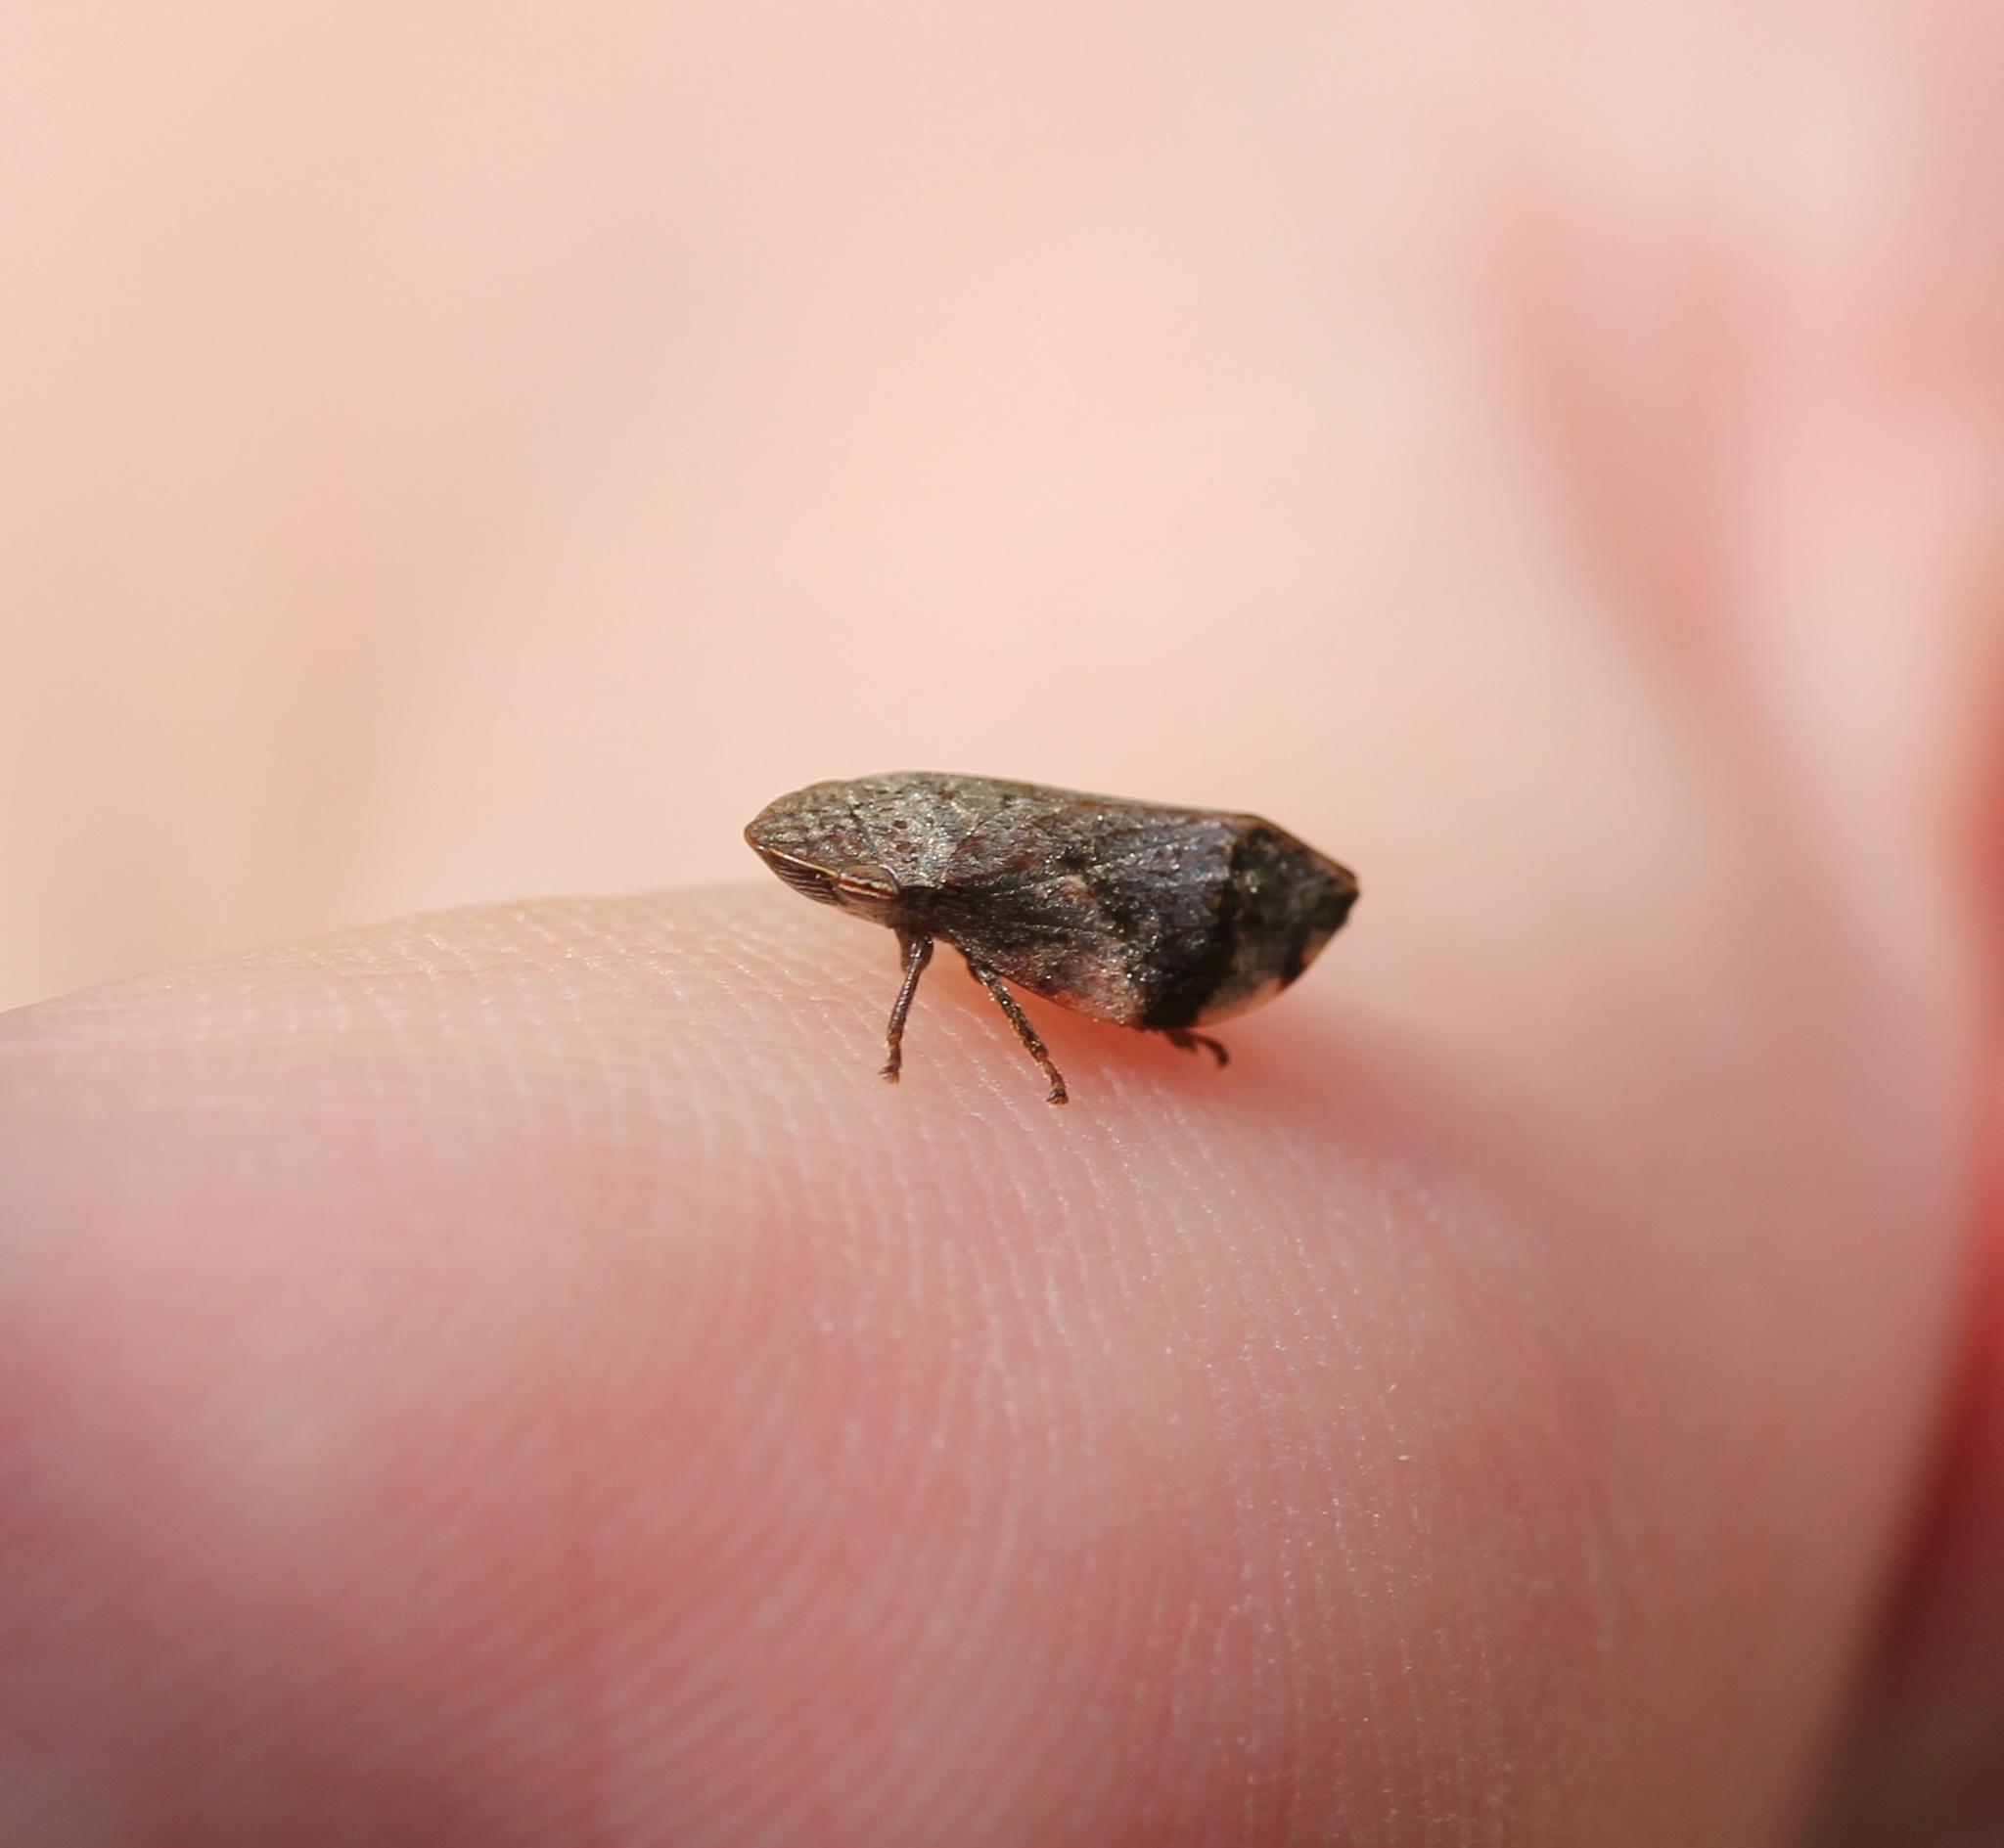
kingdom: Animalia
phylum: Arthropoda
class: Insecta
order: Hemiptera
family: Aphrophoridae
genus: Lepyronia
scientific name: Lepyronia quadrangularis
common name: Diamond-backed spittlebug
